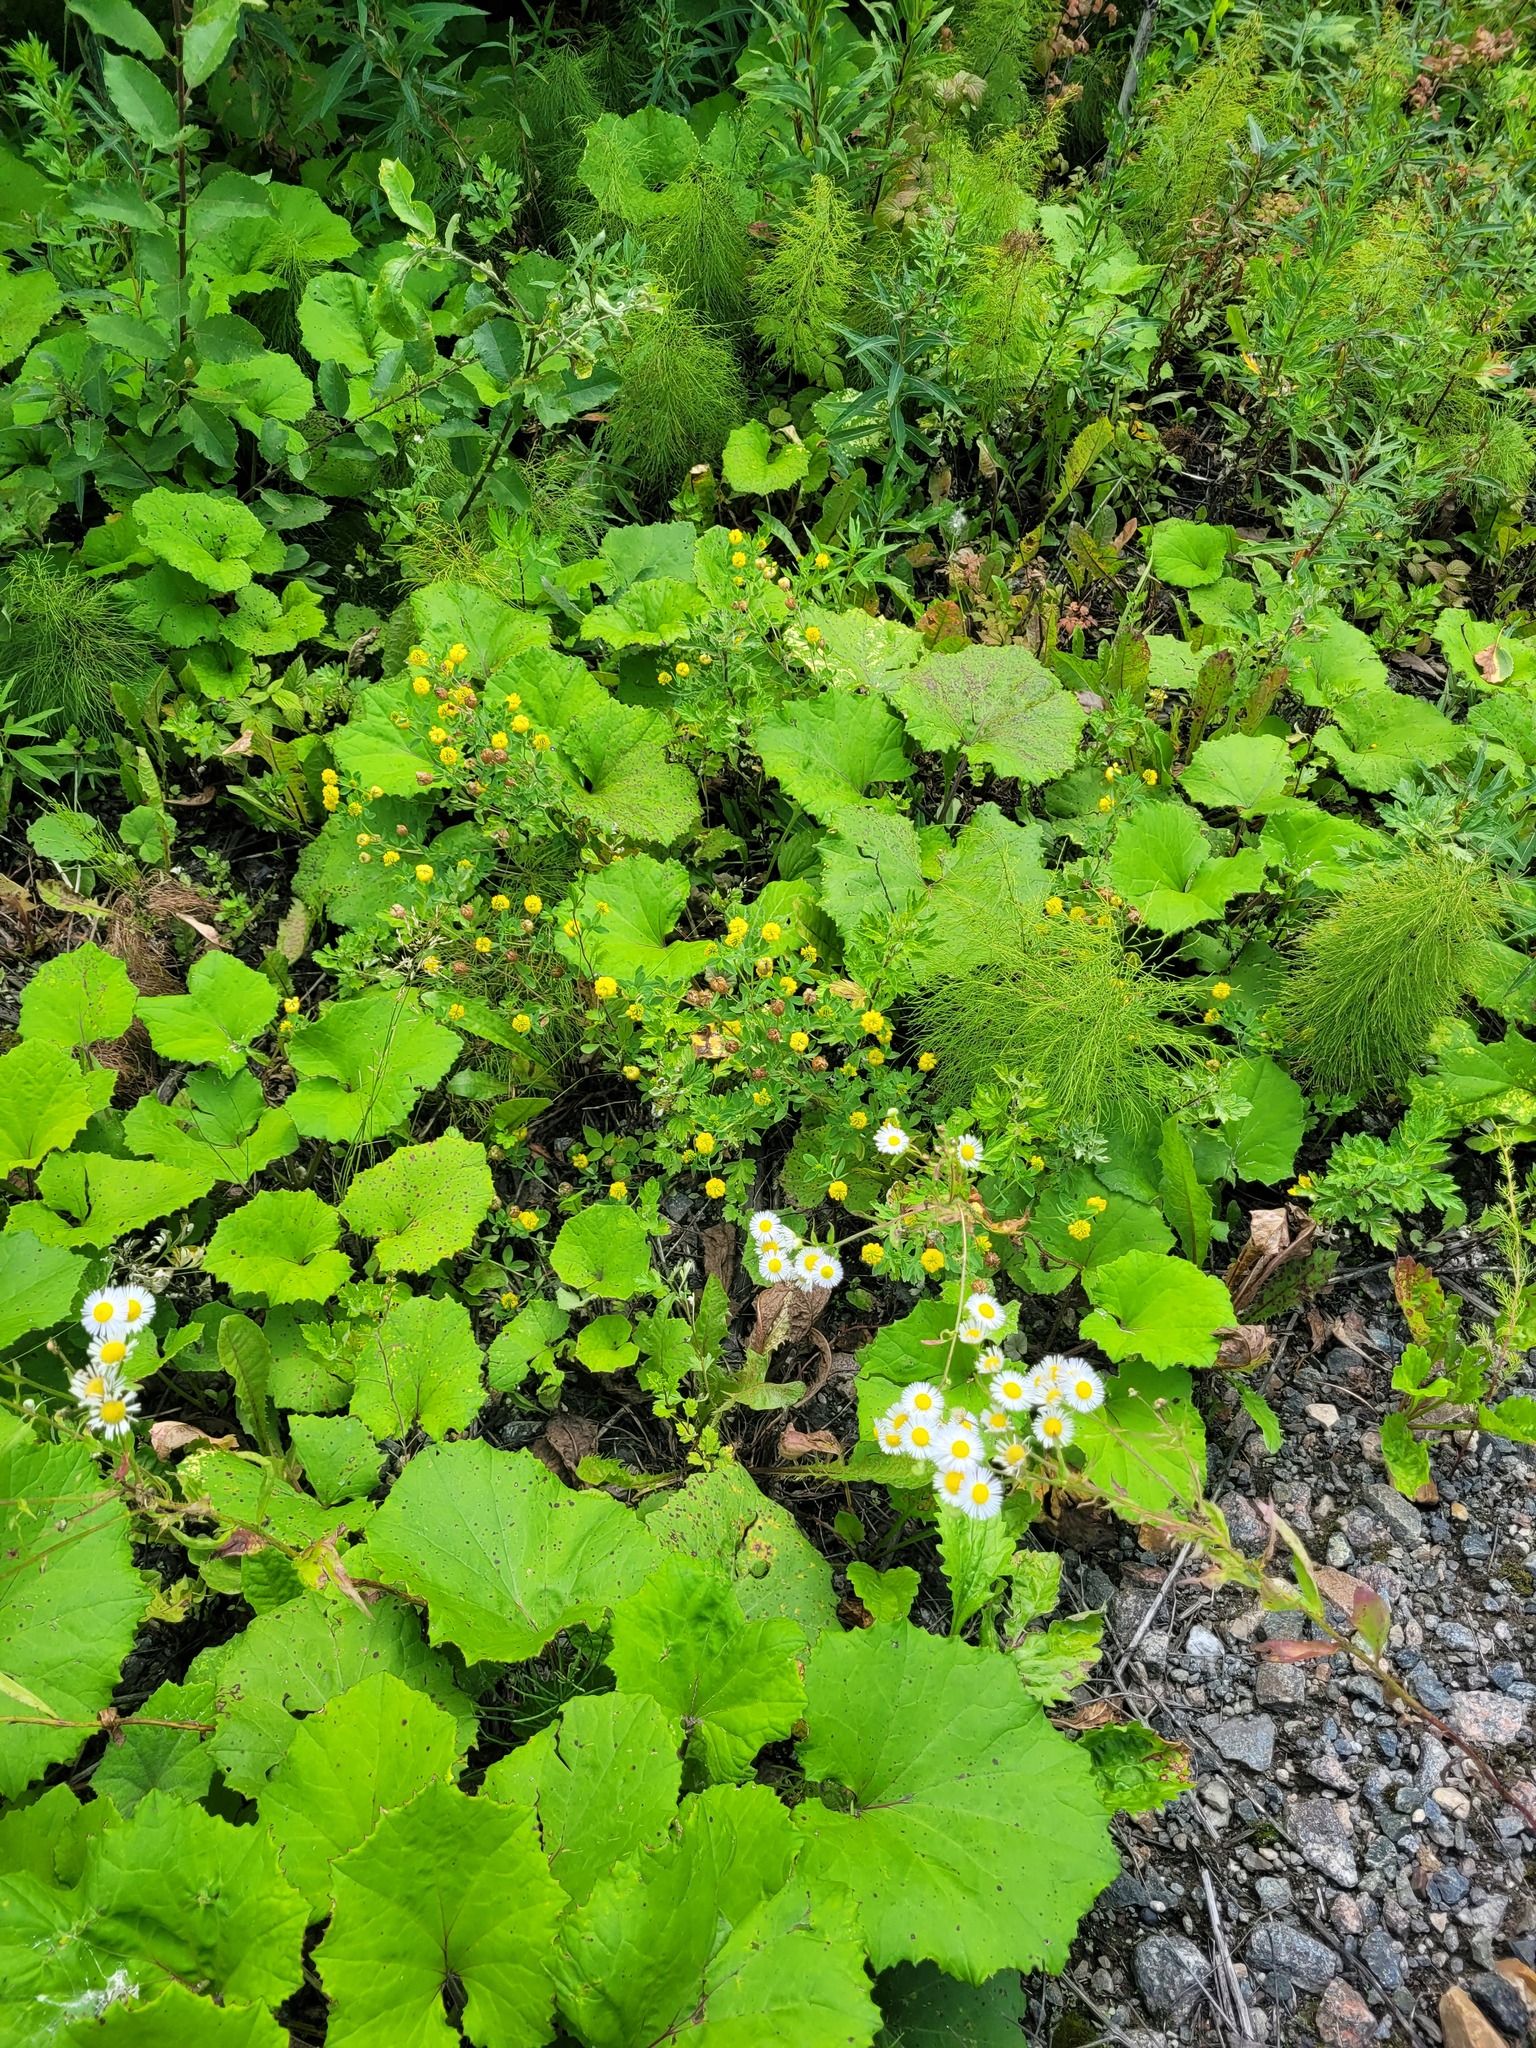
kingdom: Plantae
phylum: Tracheophyta
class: Magnoliopsida
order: Fabales
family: Fabaceae
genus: Trifolium
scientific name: Trifolium aureum
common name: Golden clover
